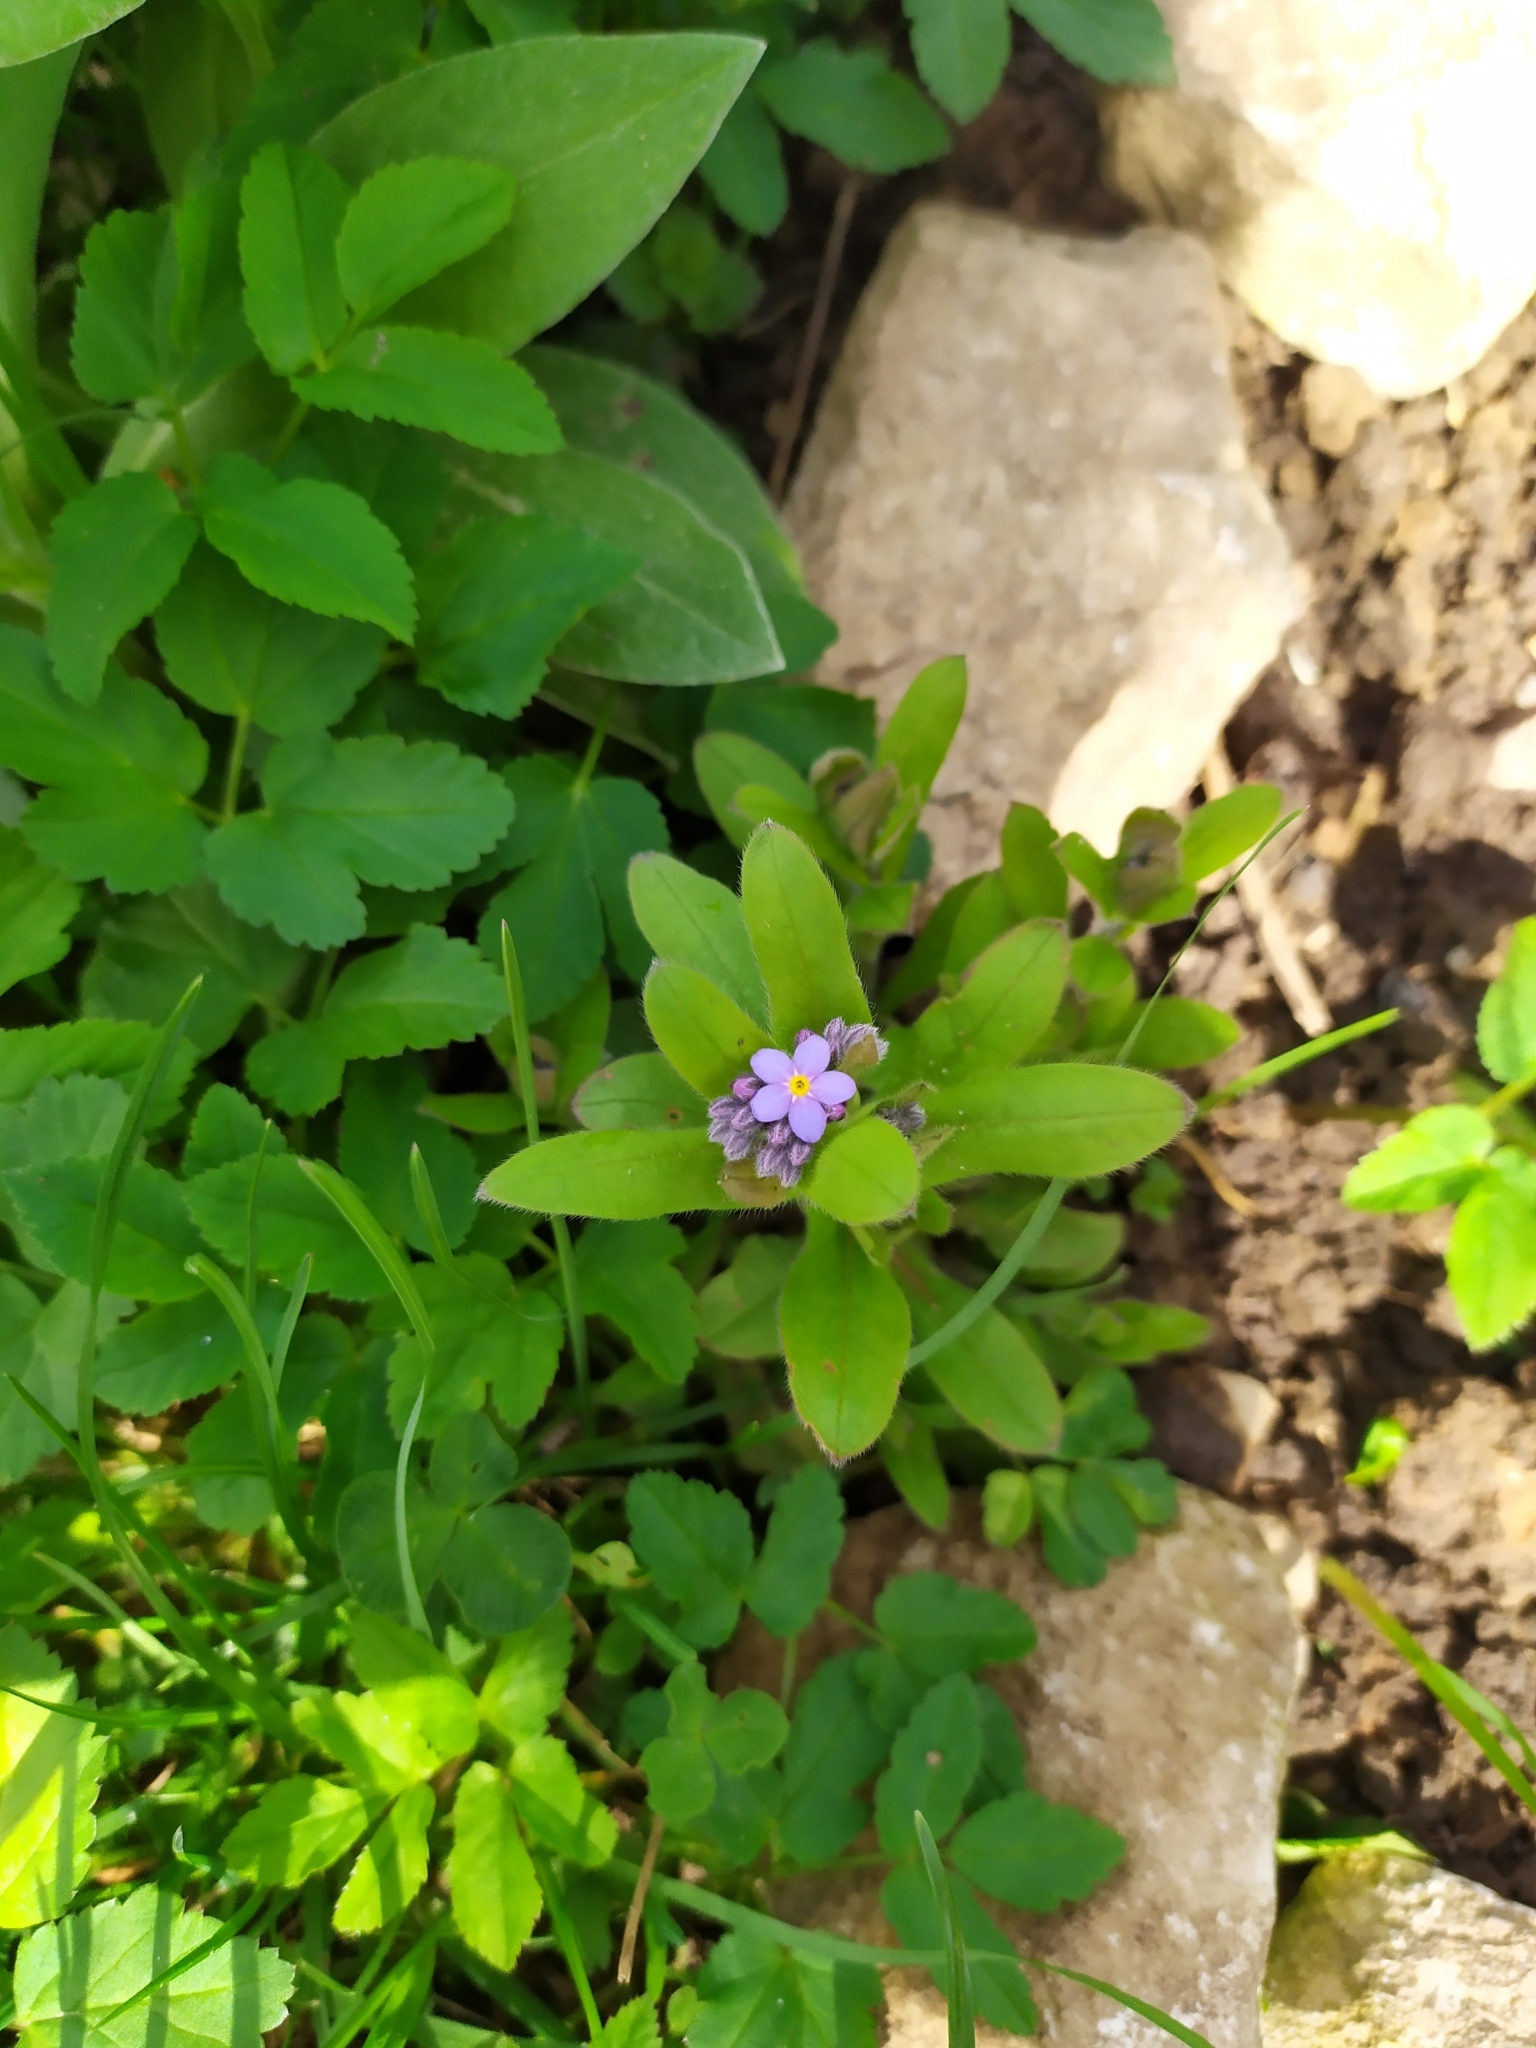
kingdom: Plantae
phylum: Tracheophyta
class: Magnoliopsida
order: Boraginales
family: Boraginaceae
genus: Myosotis
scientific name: Myosotis sylvatica
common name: Wood forget-me-not
